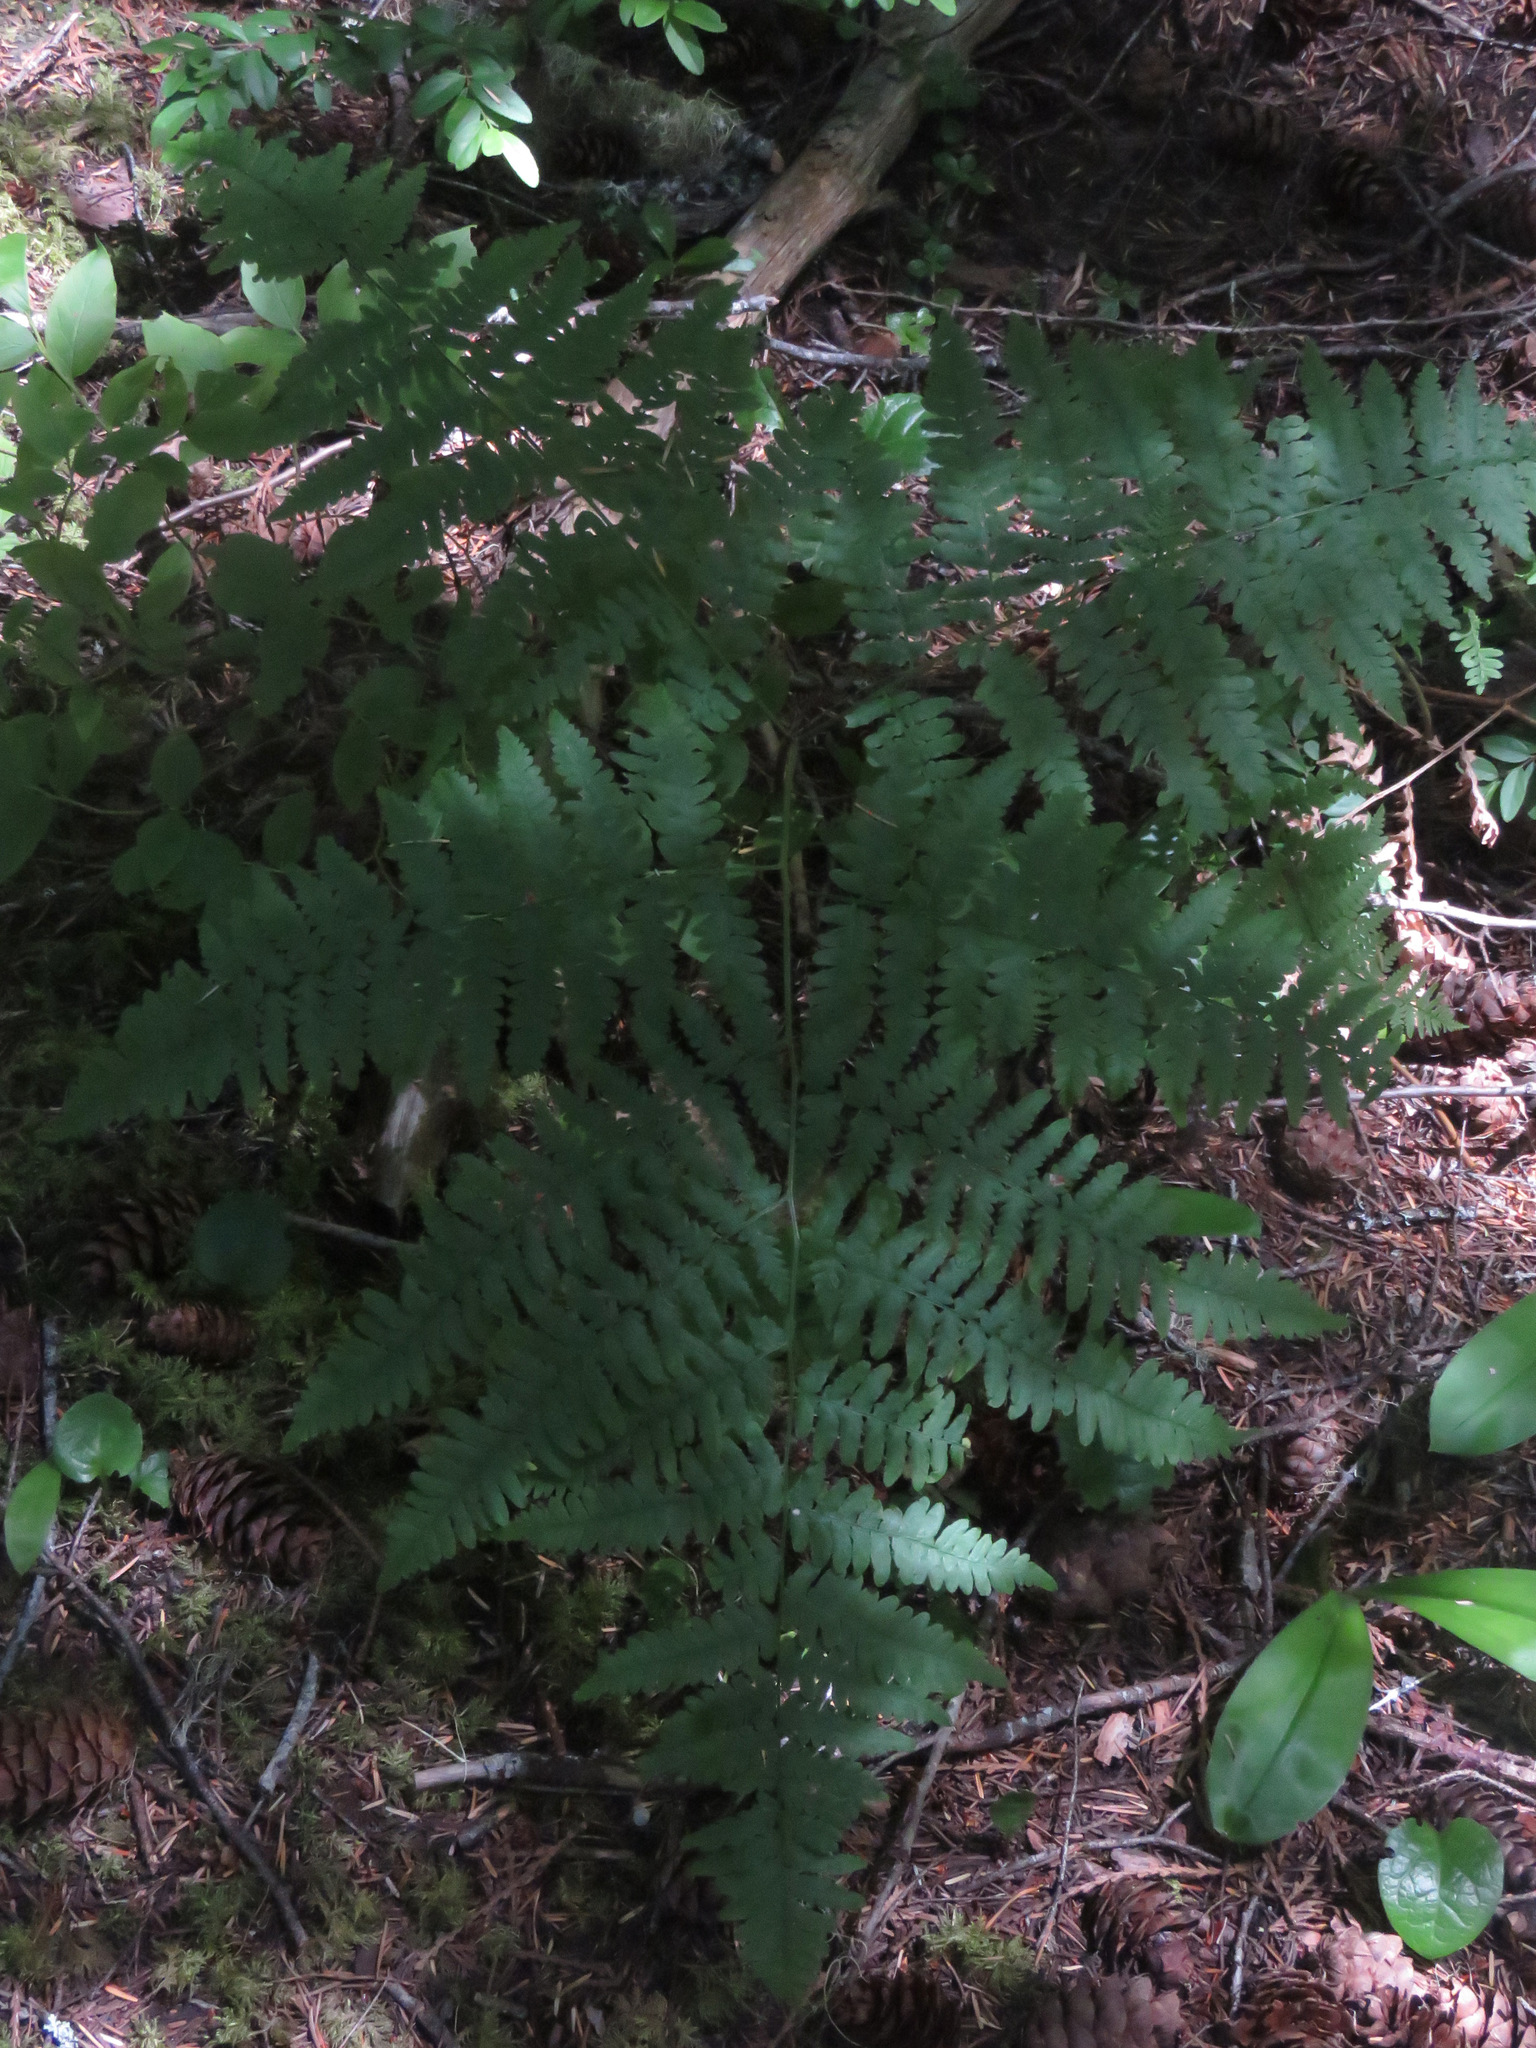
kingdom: Plantae
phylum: Tracheophyta
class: Polypodiopsida
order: Polypodiales
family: Dennstaedtiaceae
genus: Pteridium
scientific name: Pteridium aquilinum
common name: Bracken
